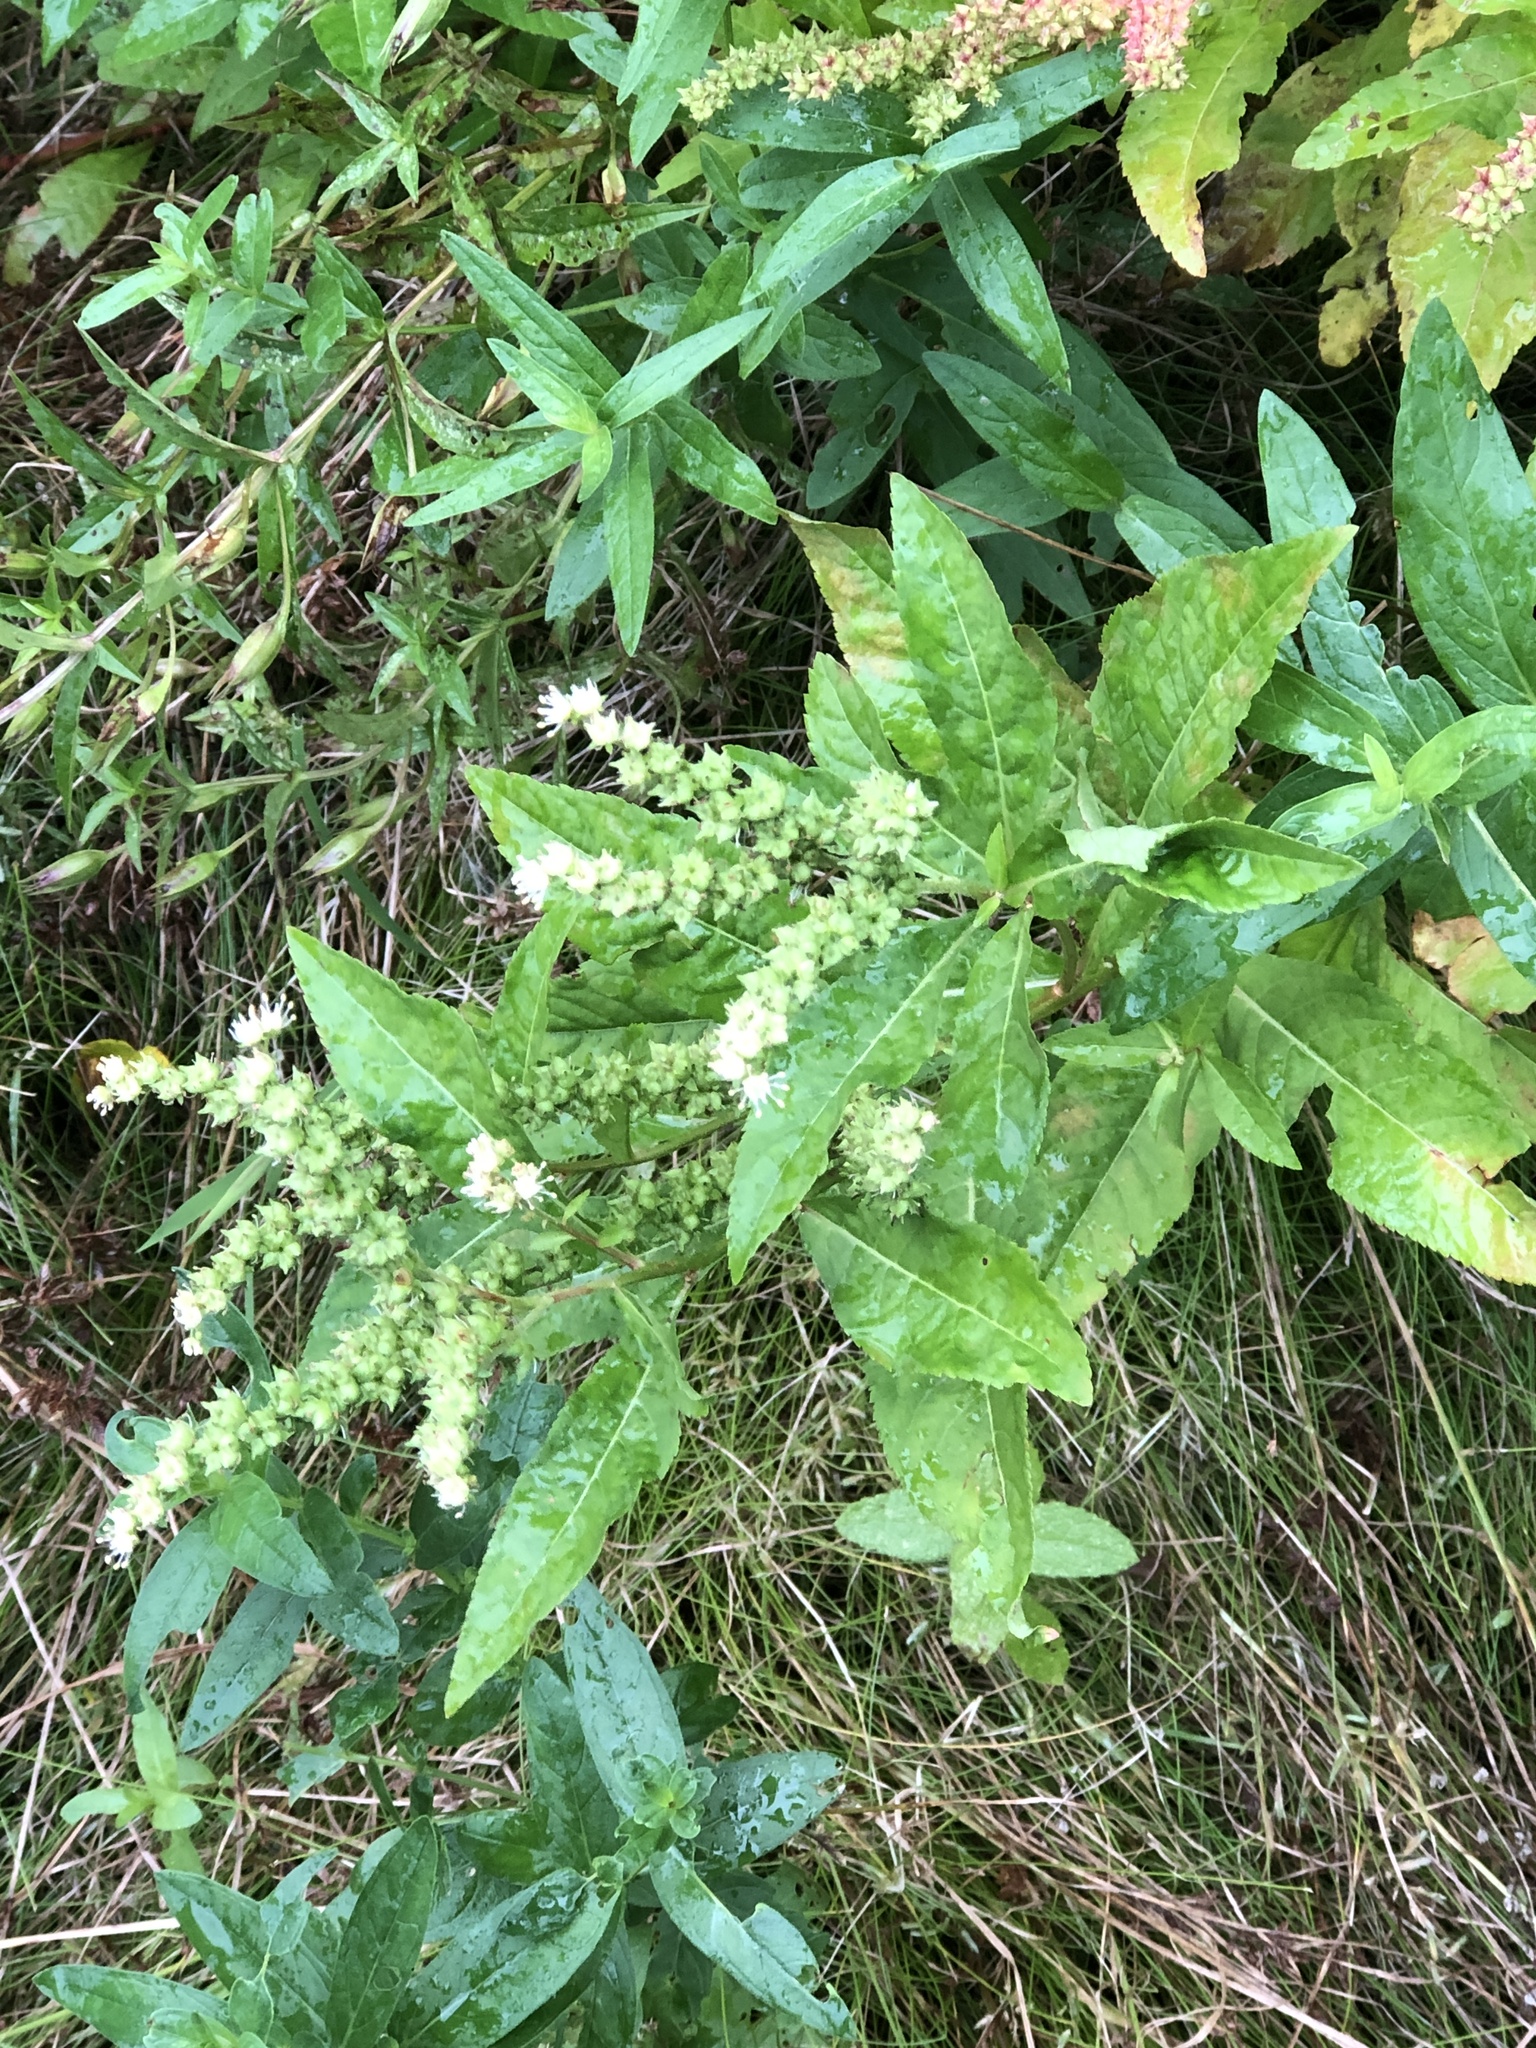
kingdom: Plantae
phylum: Tracheophyta
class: Magnoliopsida
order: Saxifragales
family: Penthoraceae
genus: Penthorum
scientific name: Penthorum sedoides
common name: Ditch stonecrop
